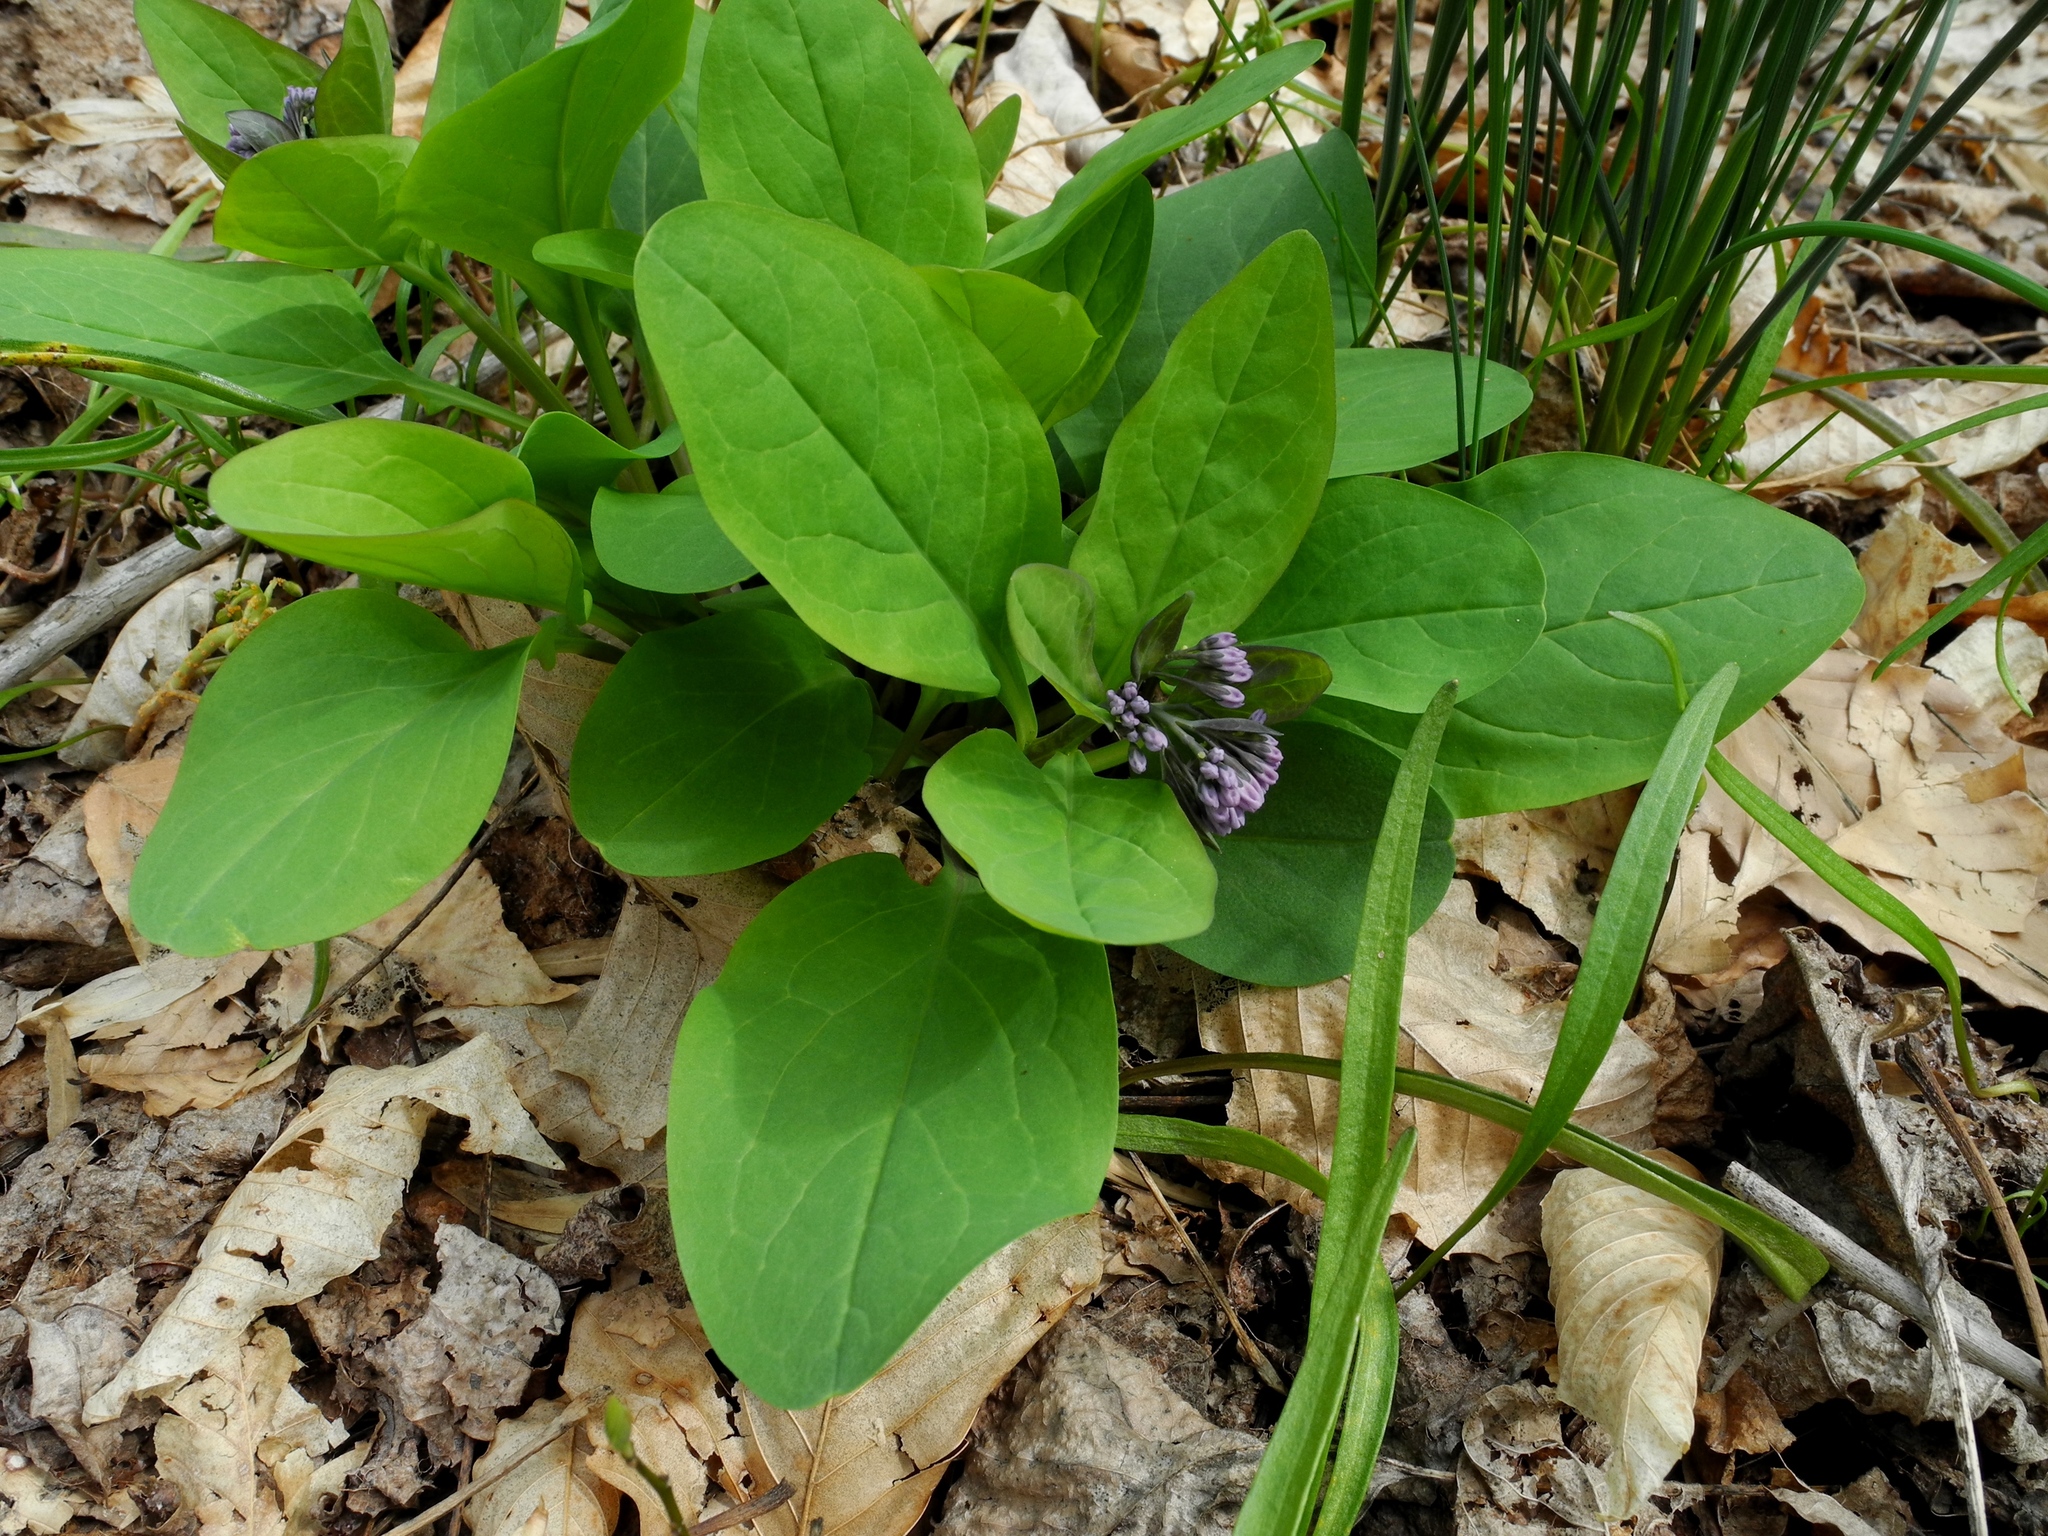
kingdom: Plantae
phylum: Tracheophyta
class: Magnoliopsida
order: Boraginales
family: Boraginaceae
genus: Mertensia
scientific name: Mertensia virginica
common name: Virginia bluebells
